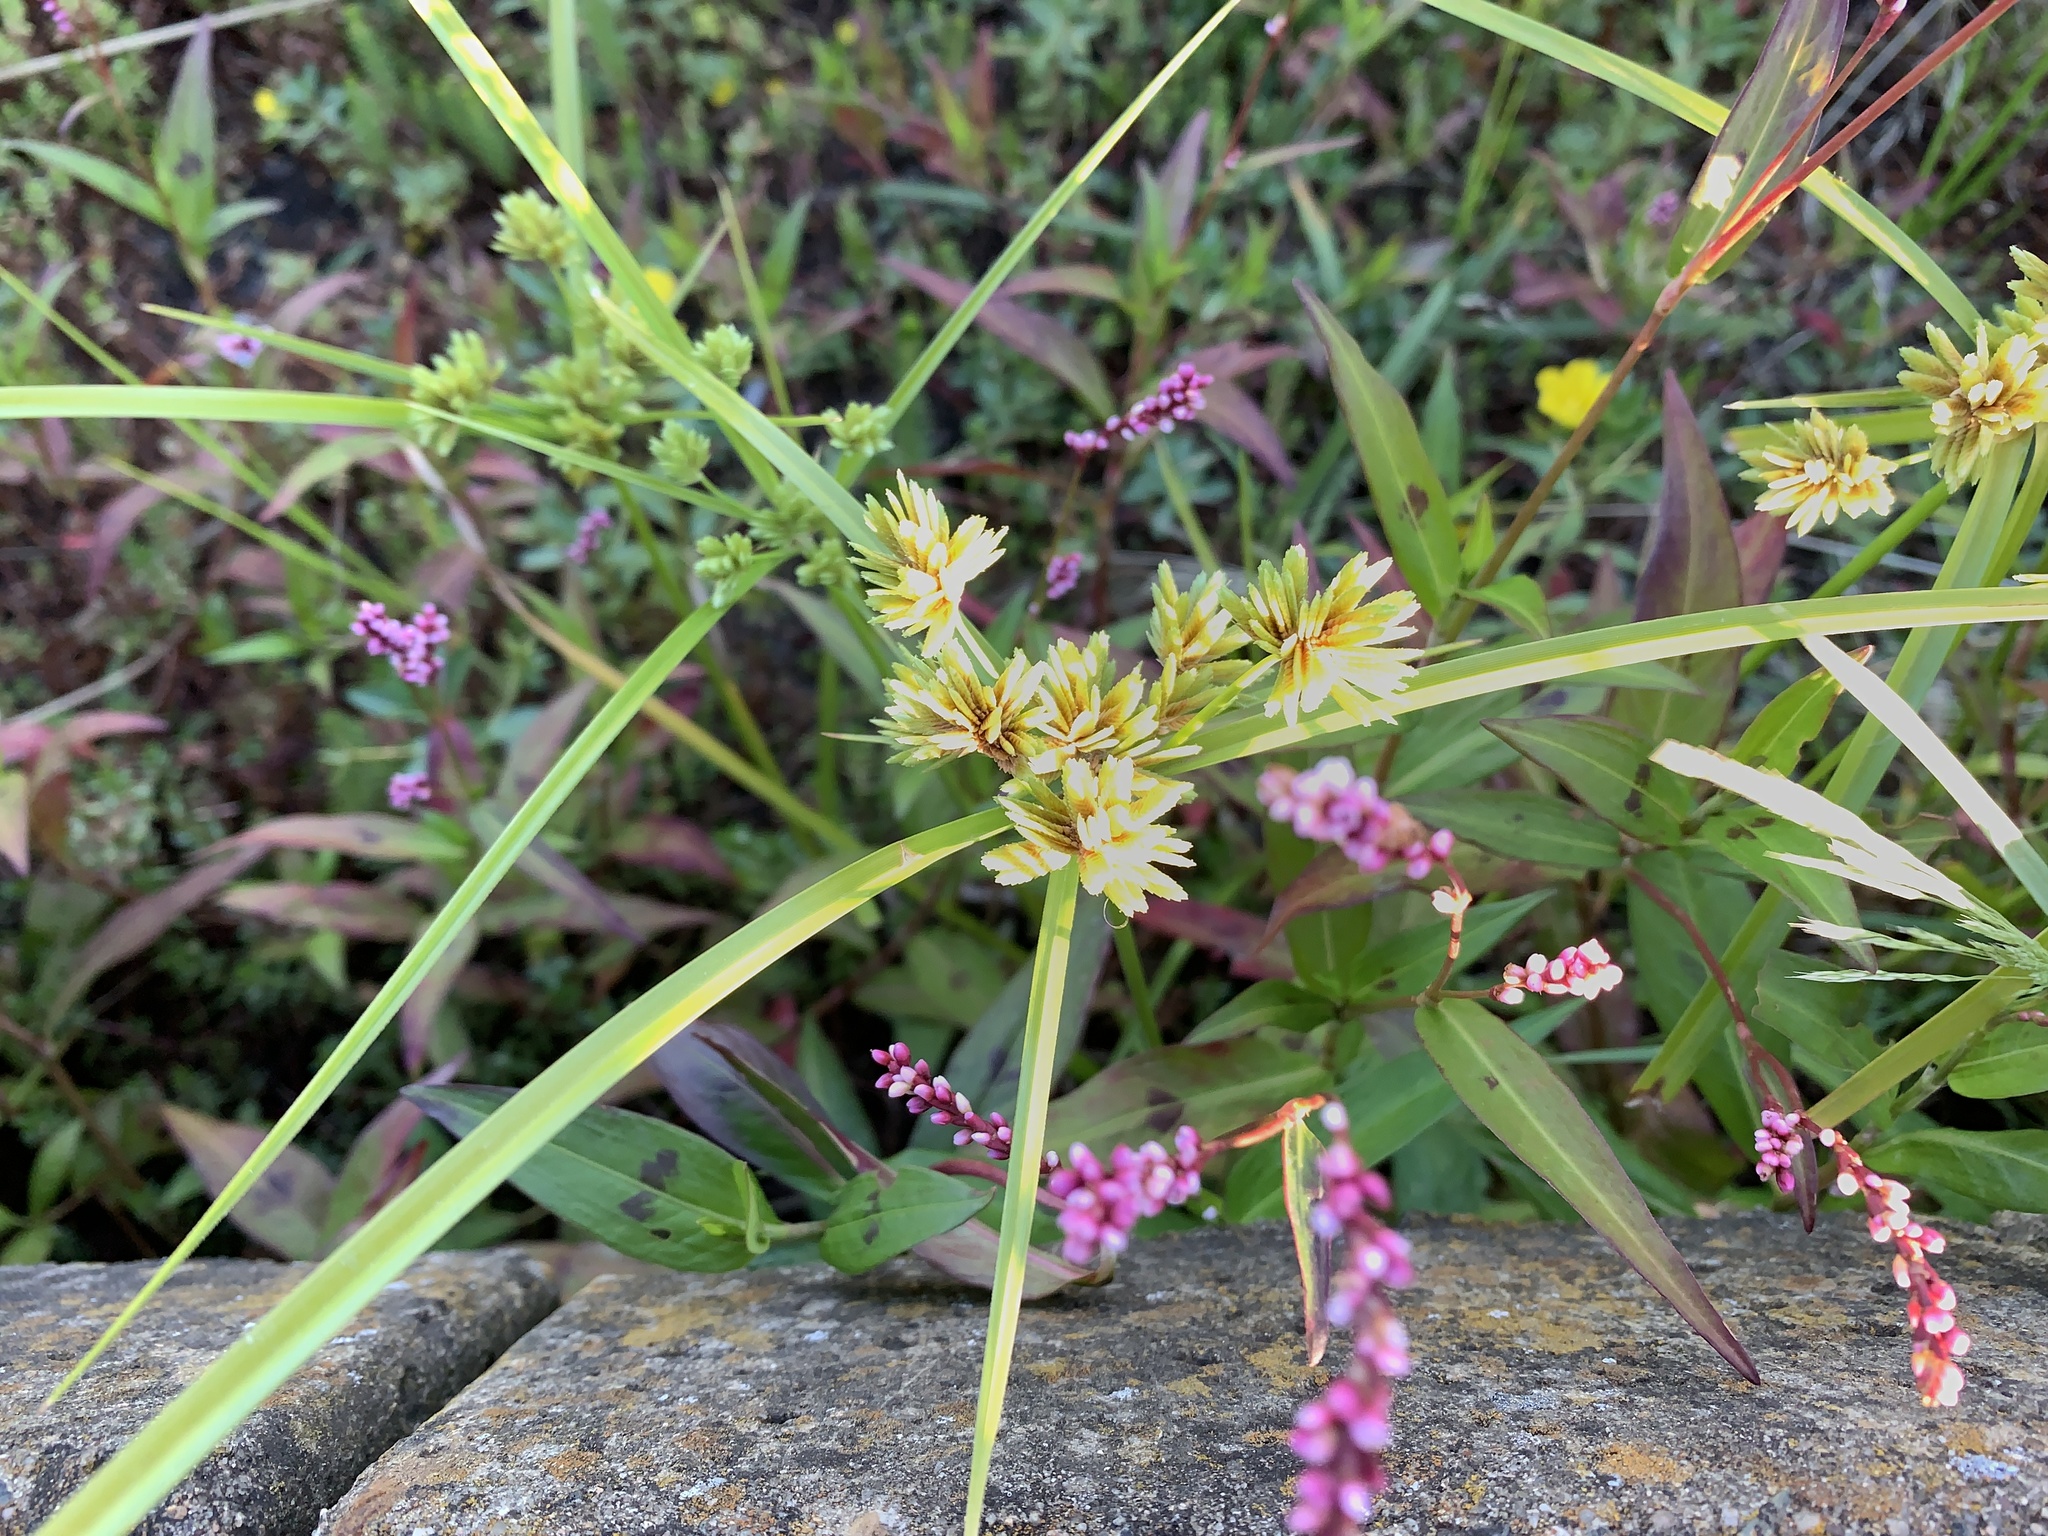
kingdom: Plantae
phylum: Tracheophyta
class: Liliopsida
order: Poales
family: Cyperaceae
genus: Cyperus
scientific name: Cyperus eragrostis
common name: Tall flatsedge
